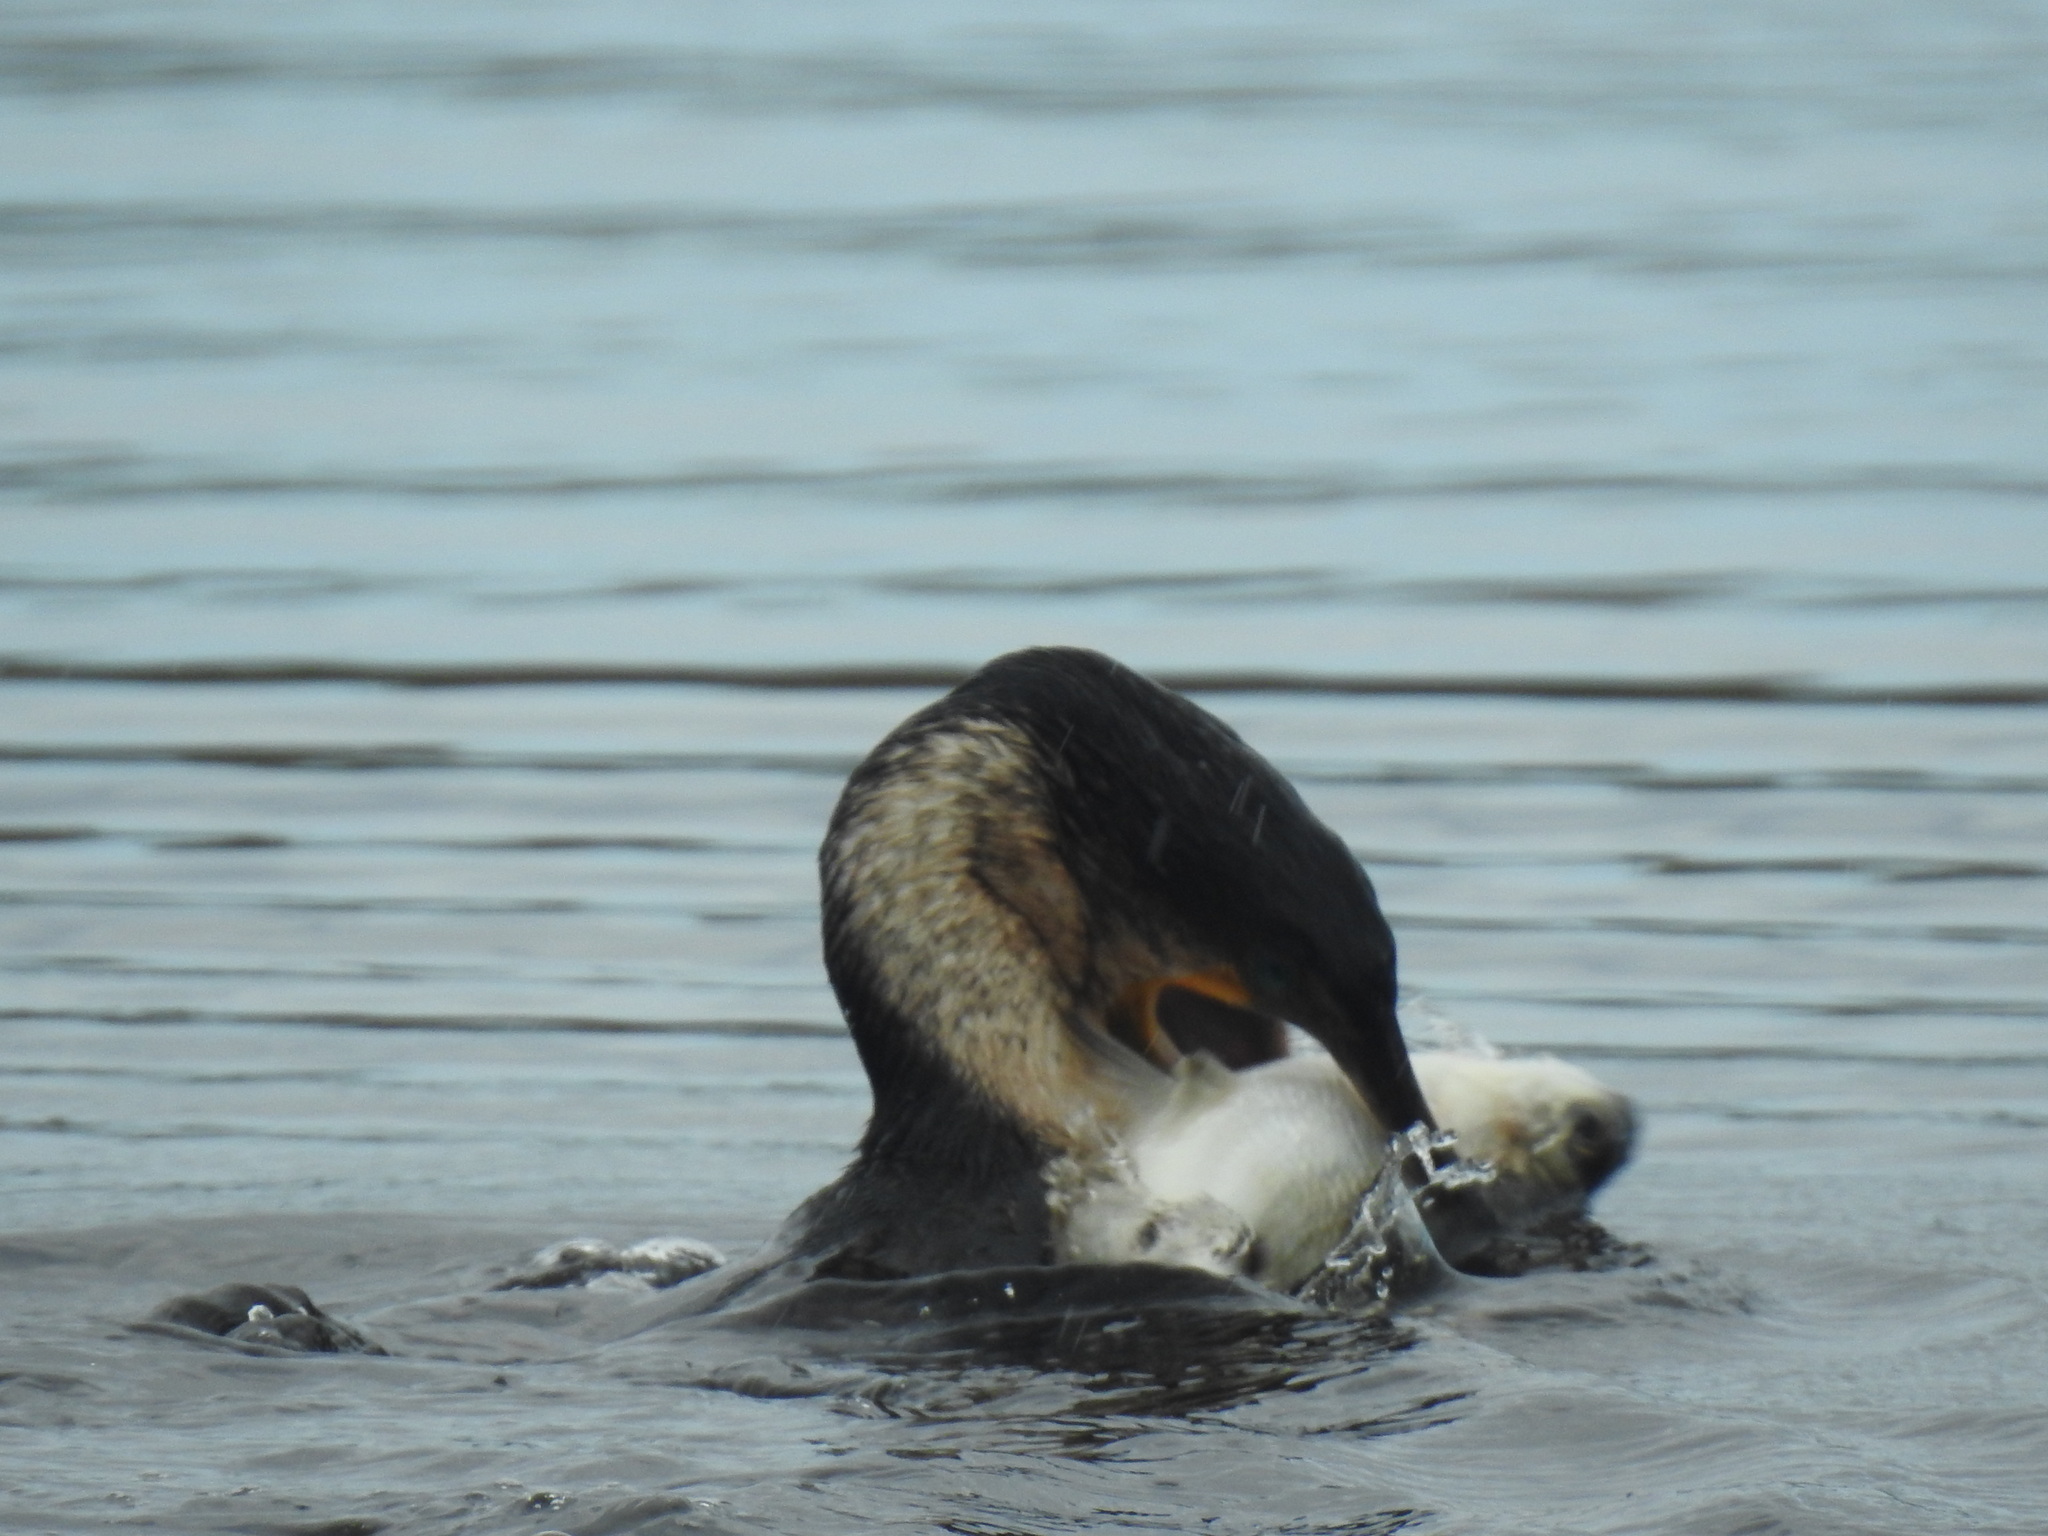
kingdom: Animalia
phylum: Chordata
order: Mugiliformes
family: Mugilidae
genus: Pseudomyxus
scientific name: Pseudomyxus capensis
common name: Freshwater mullet
